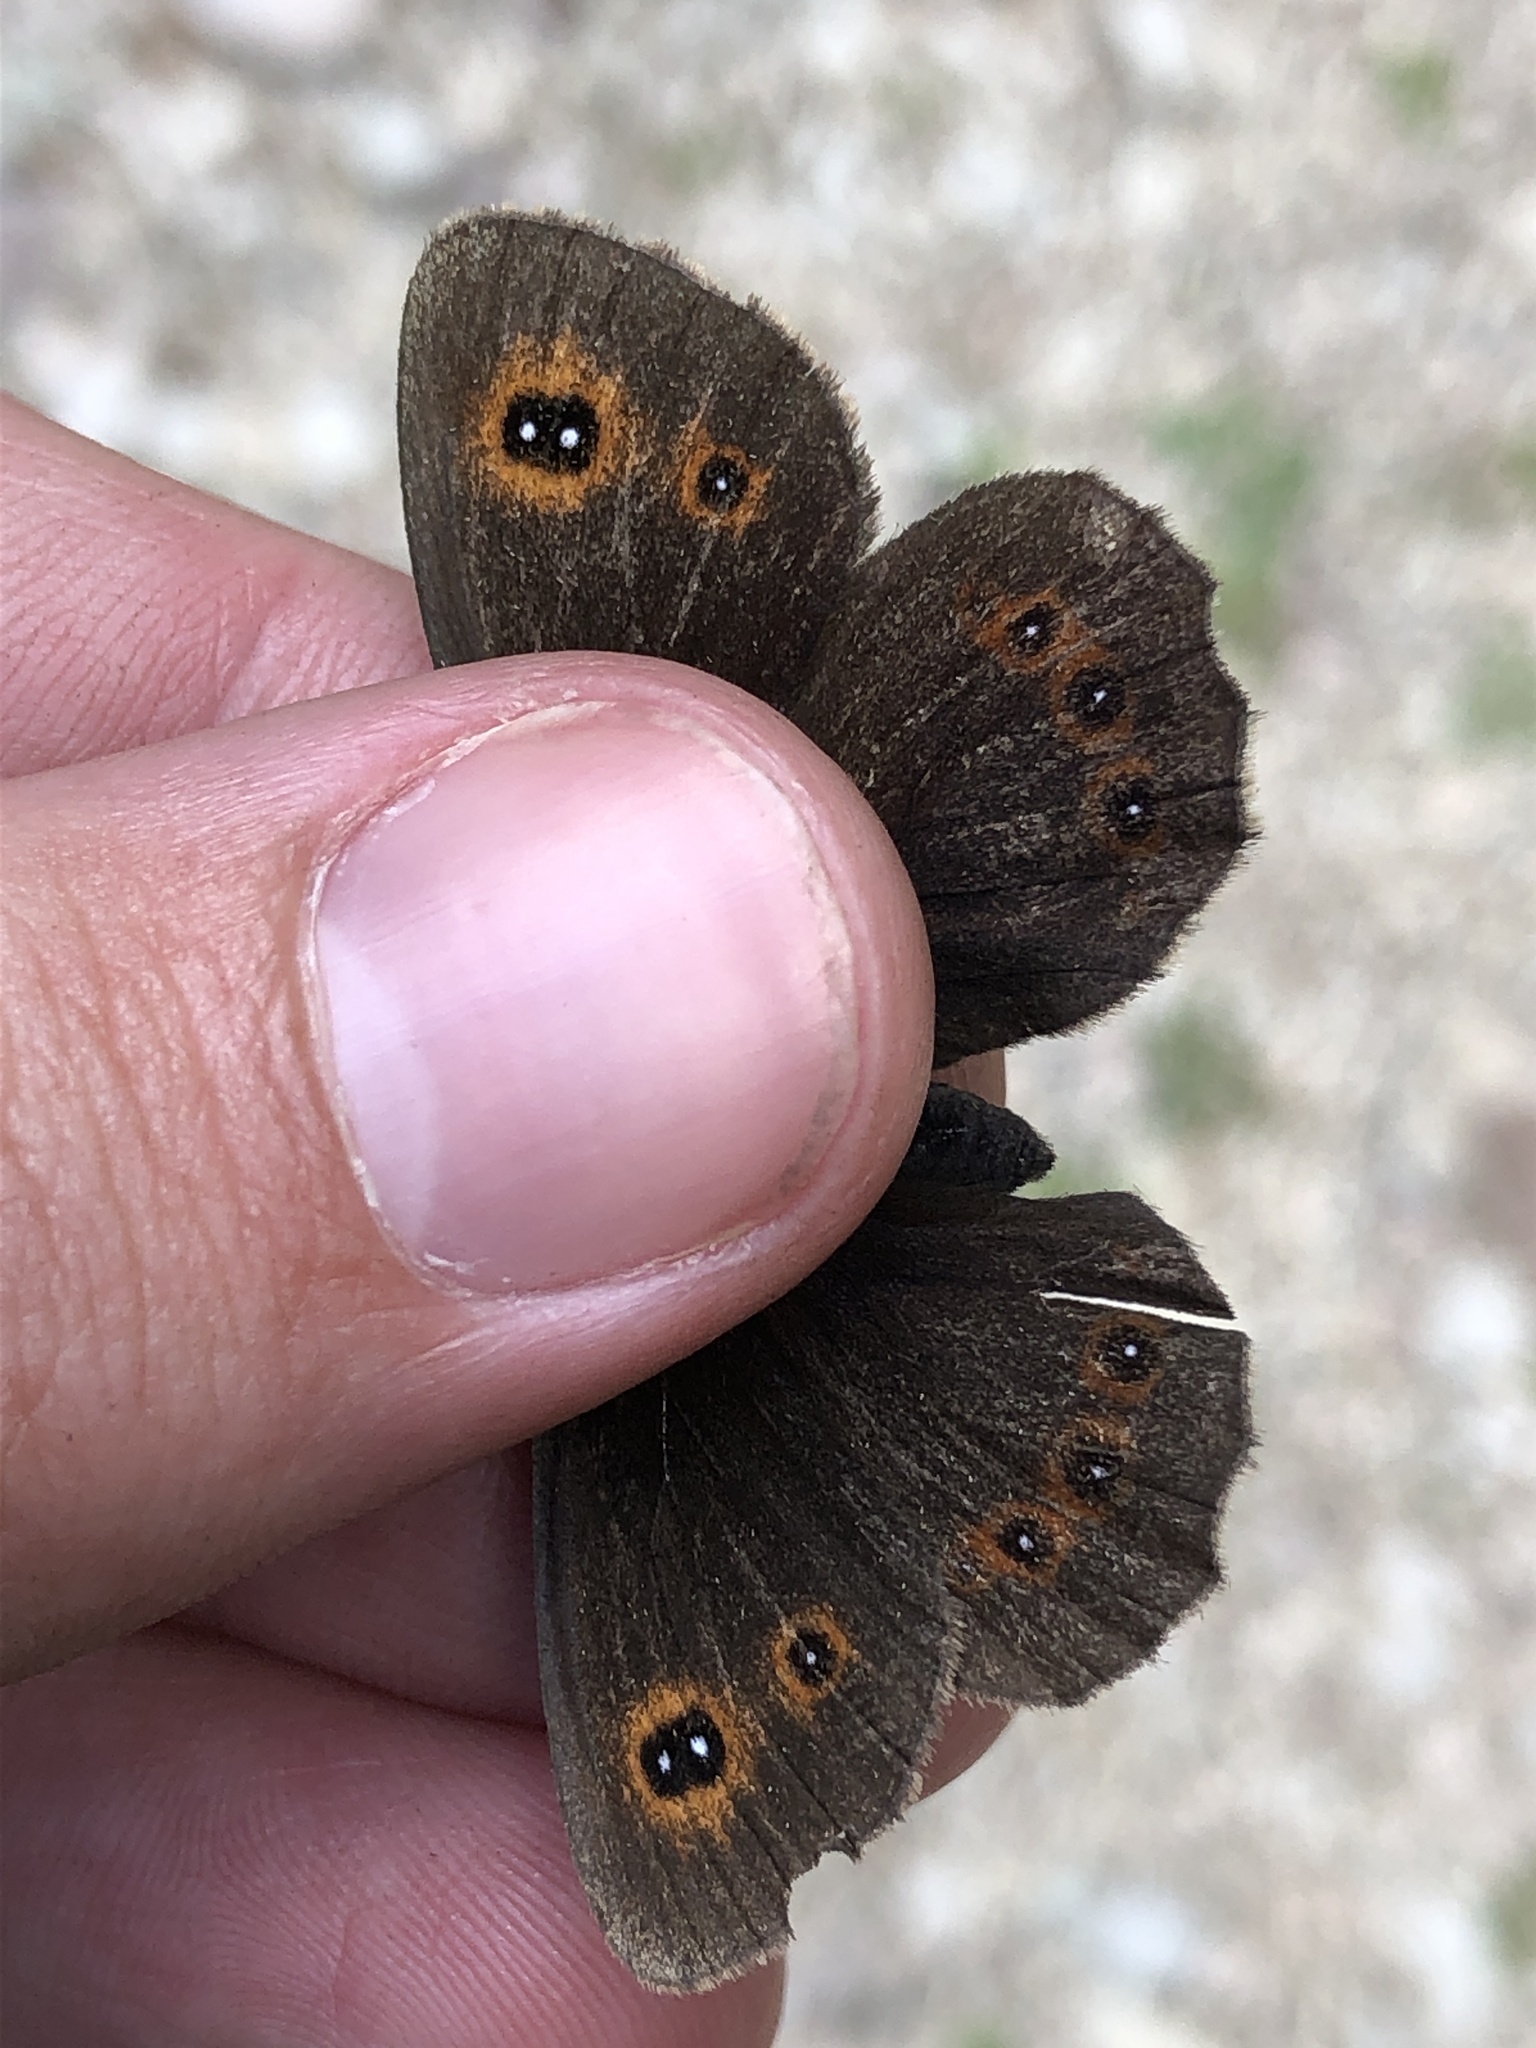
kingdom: Animalia
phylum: Arthropoda
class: Insecta
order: Lepidoptera
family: Nymphalidae
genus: Erebia
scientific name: Erebia aethiops
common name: Scotch argus
